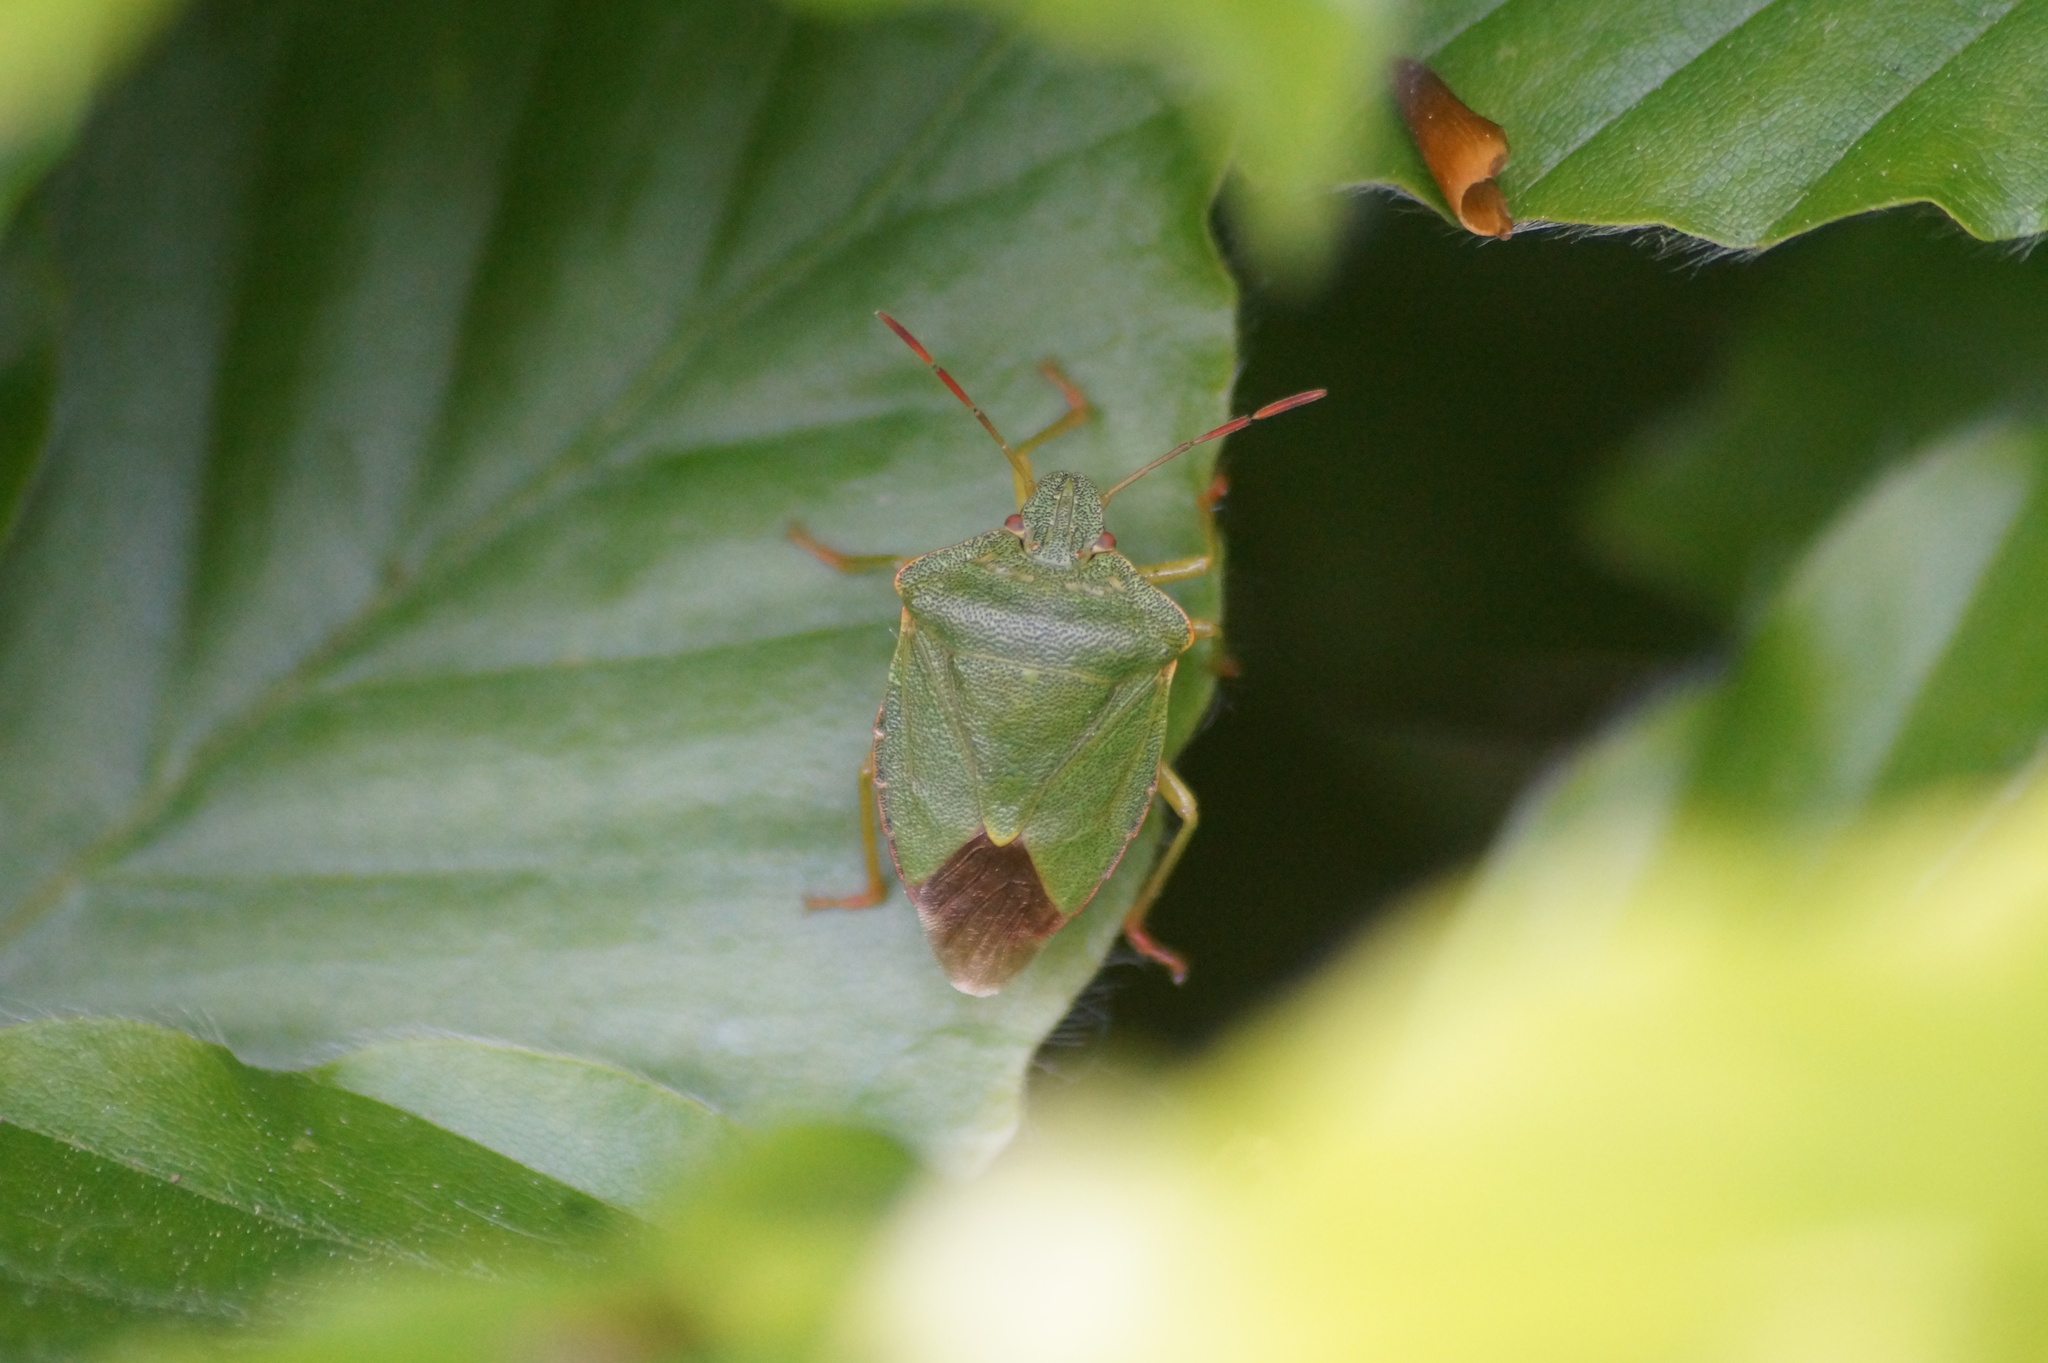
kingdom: Animalia
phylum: Arthropoda
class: Insecta
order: Hemiptera
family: Pentatomidae
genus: Palomena
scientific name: Palomena prasina
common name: Green shieldbug
